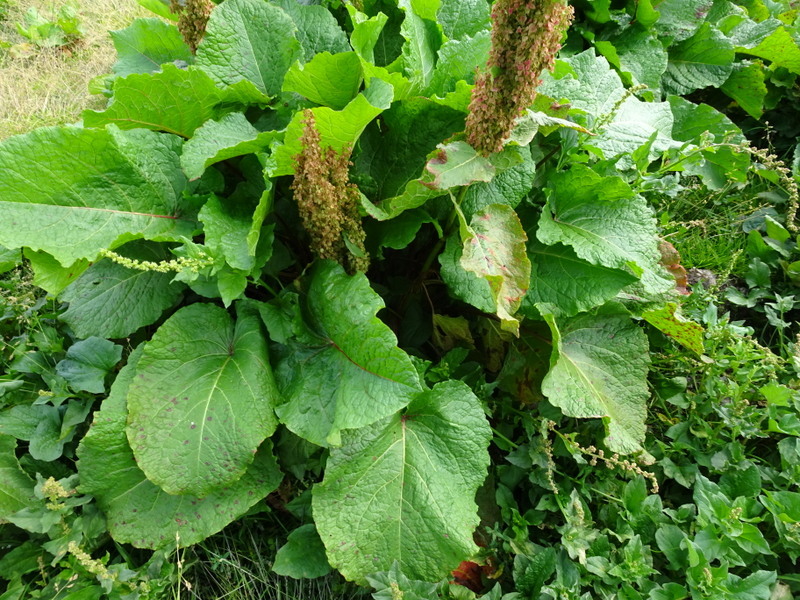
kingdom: Plantae
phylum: Tracheophyta
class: Magnoliopsida
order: Caryophyllales
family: Polygonaceae
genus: Rumex
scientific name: Rumex alpinus
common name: Alpine dock
